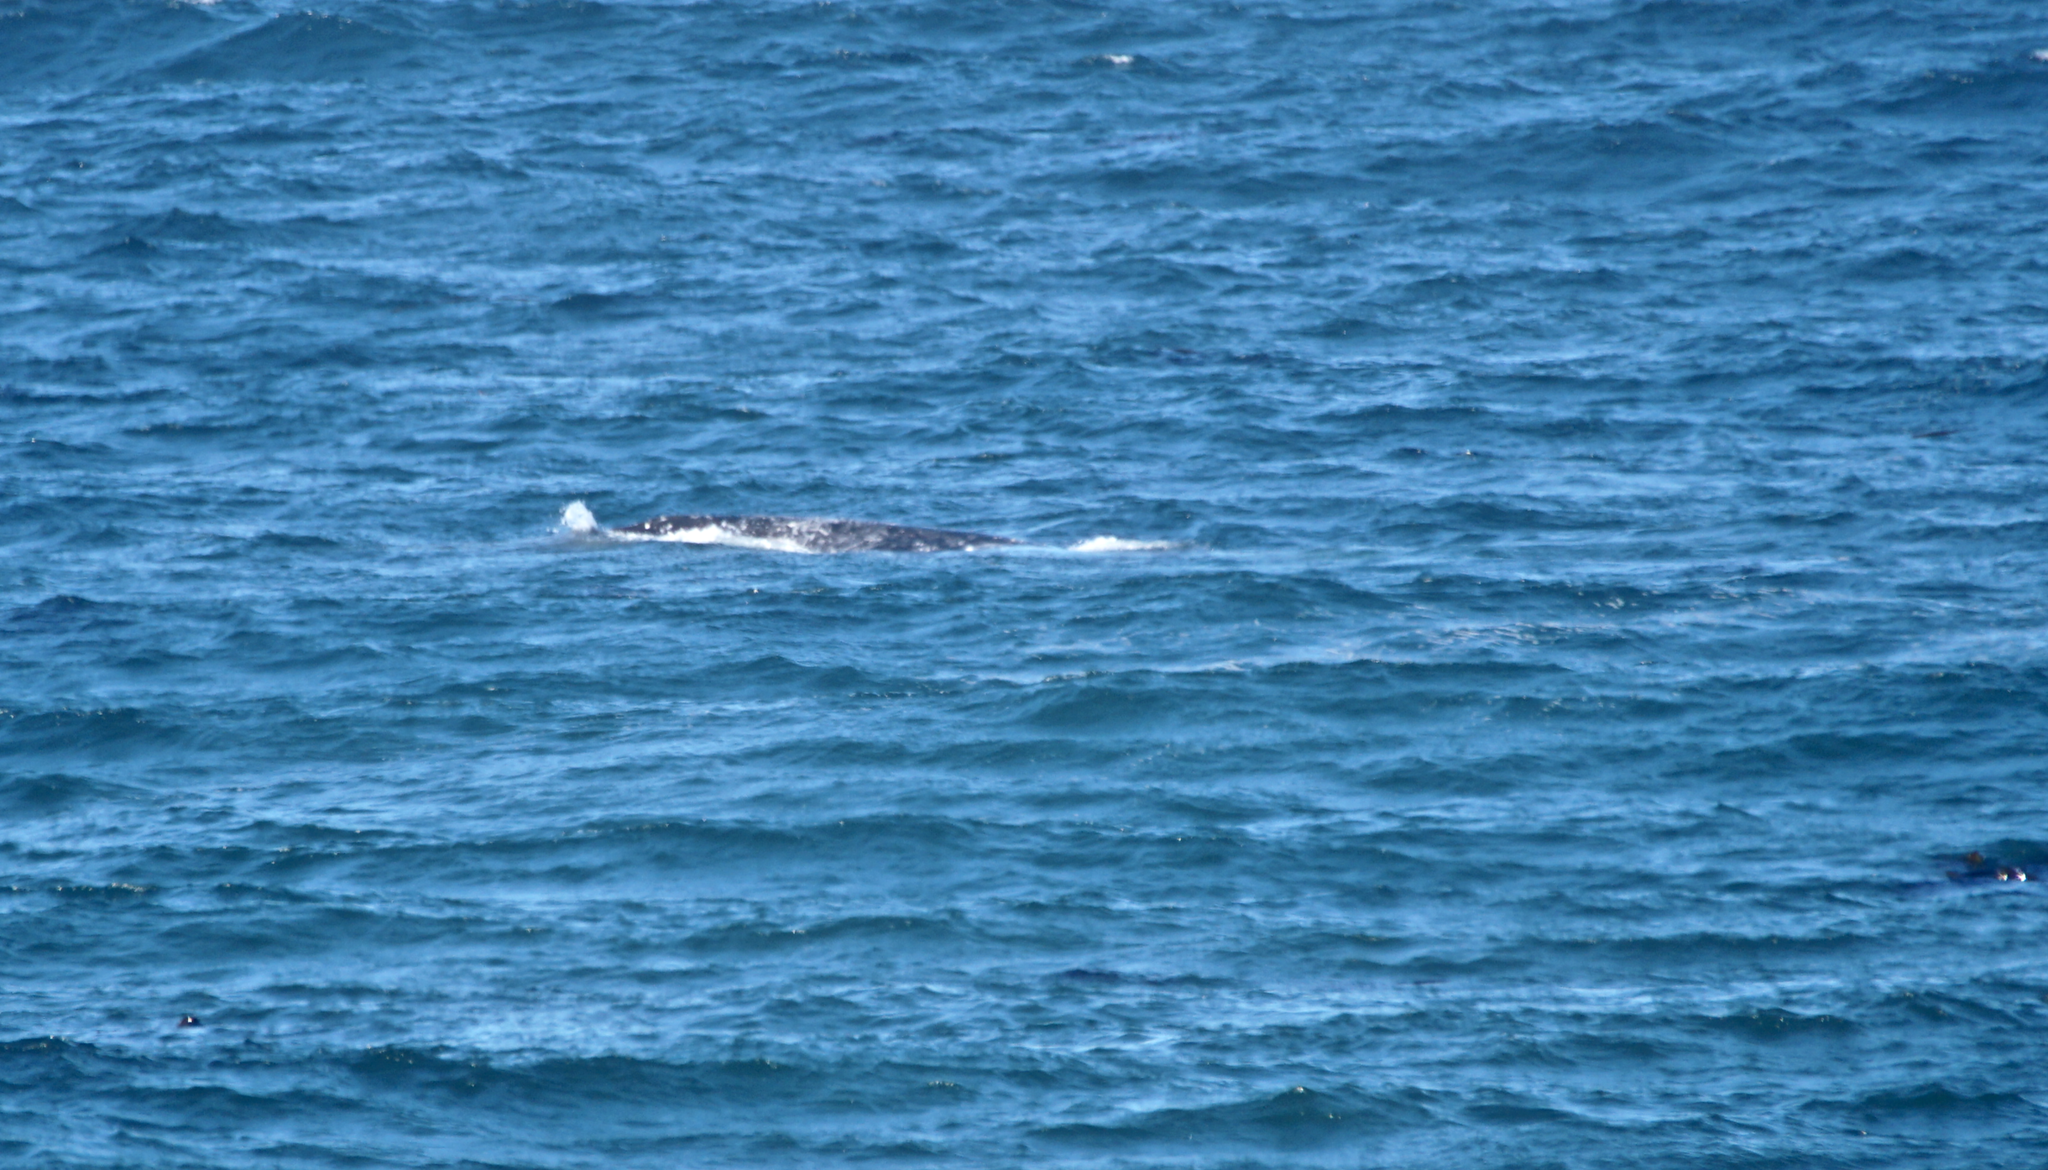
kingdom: Animalia
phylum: Chordata
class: Mammalia
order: Cetacea
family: Eschrichtiidae
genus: Eschrichtius
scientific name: Eschrichtius robustus
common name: Gray whale
